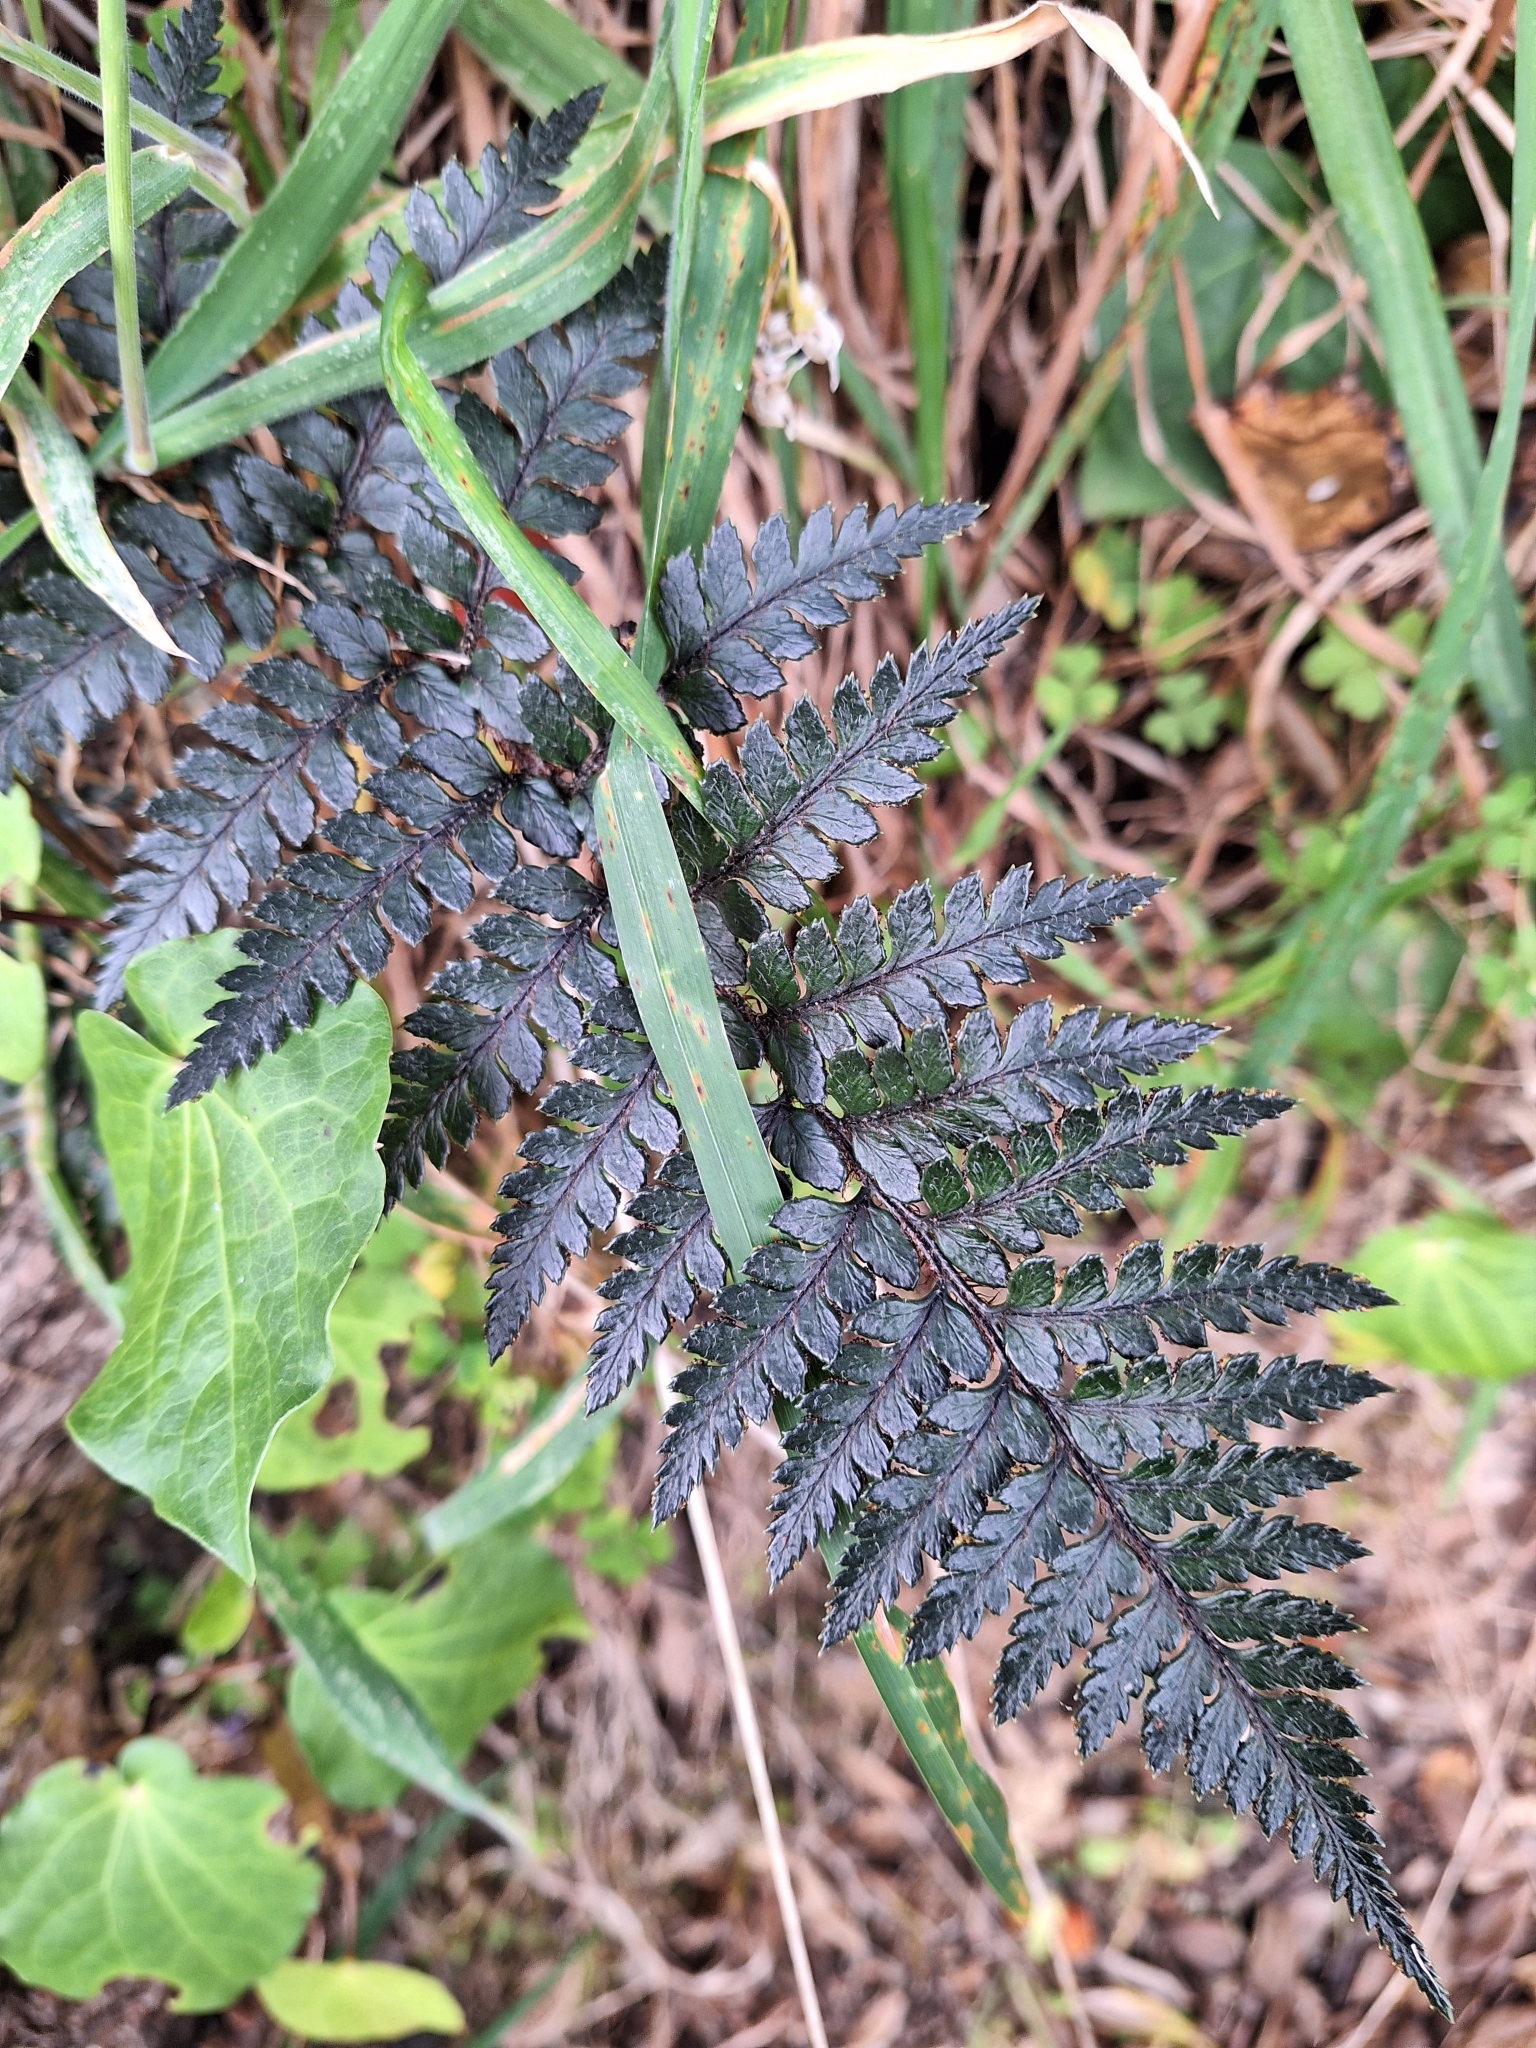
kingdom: Plantae
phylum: Tracheophyta
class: Polypodiopsida
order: Polypodiales
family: Dryopteridaceae
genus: Polystichum
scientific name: Polystichum neozelandicum
